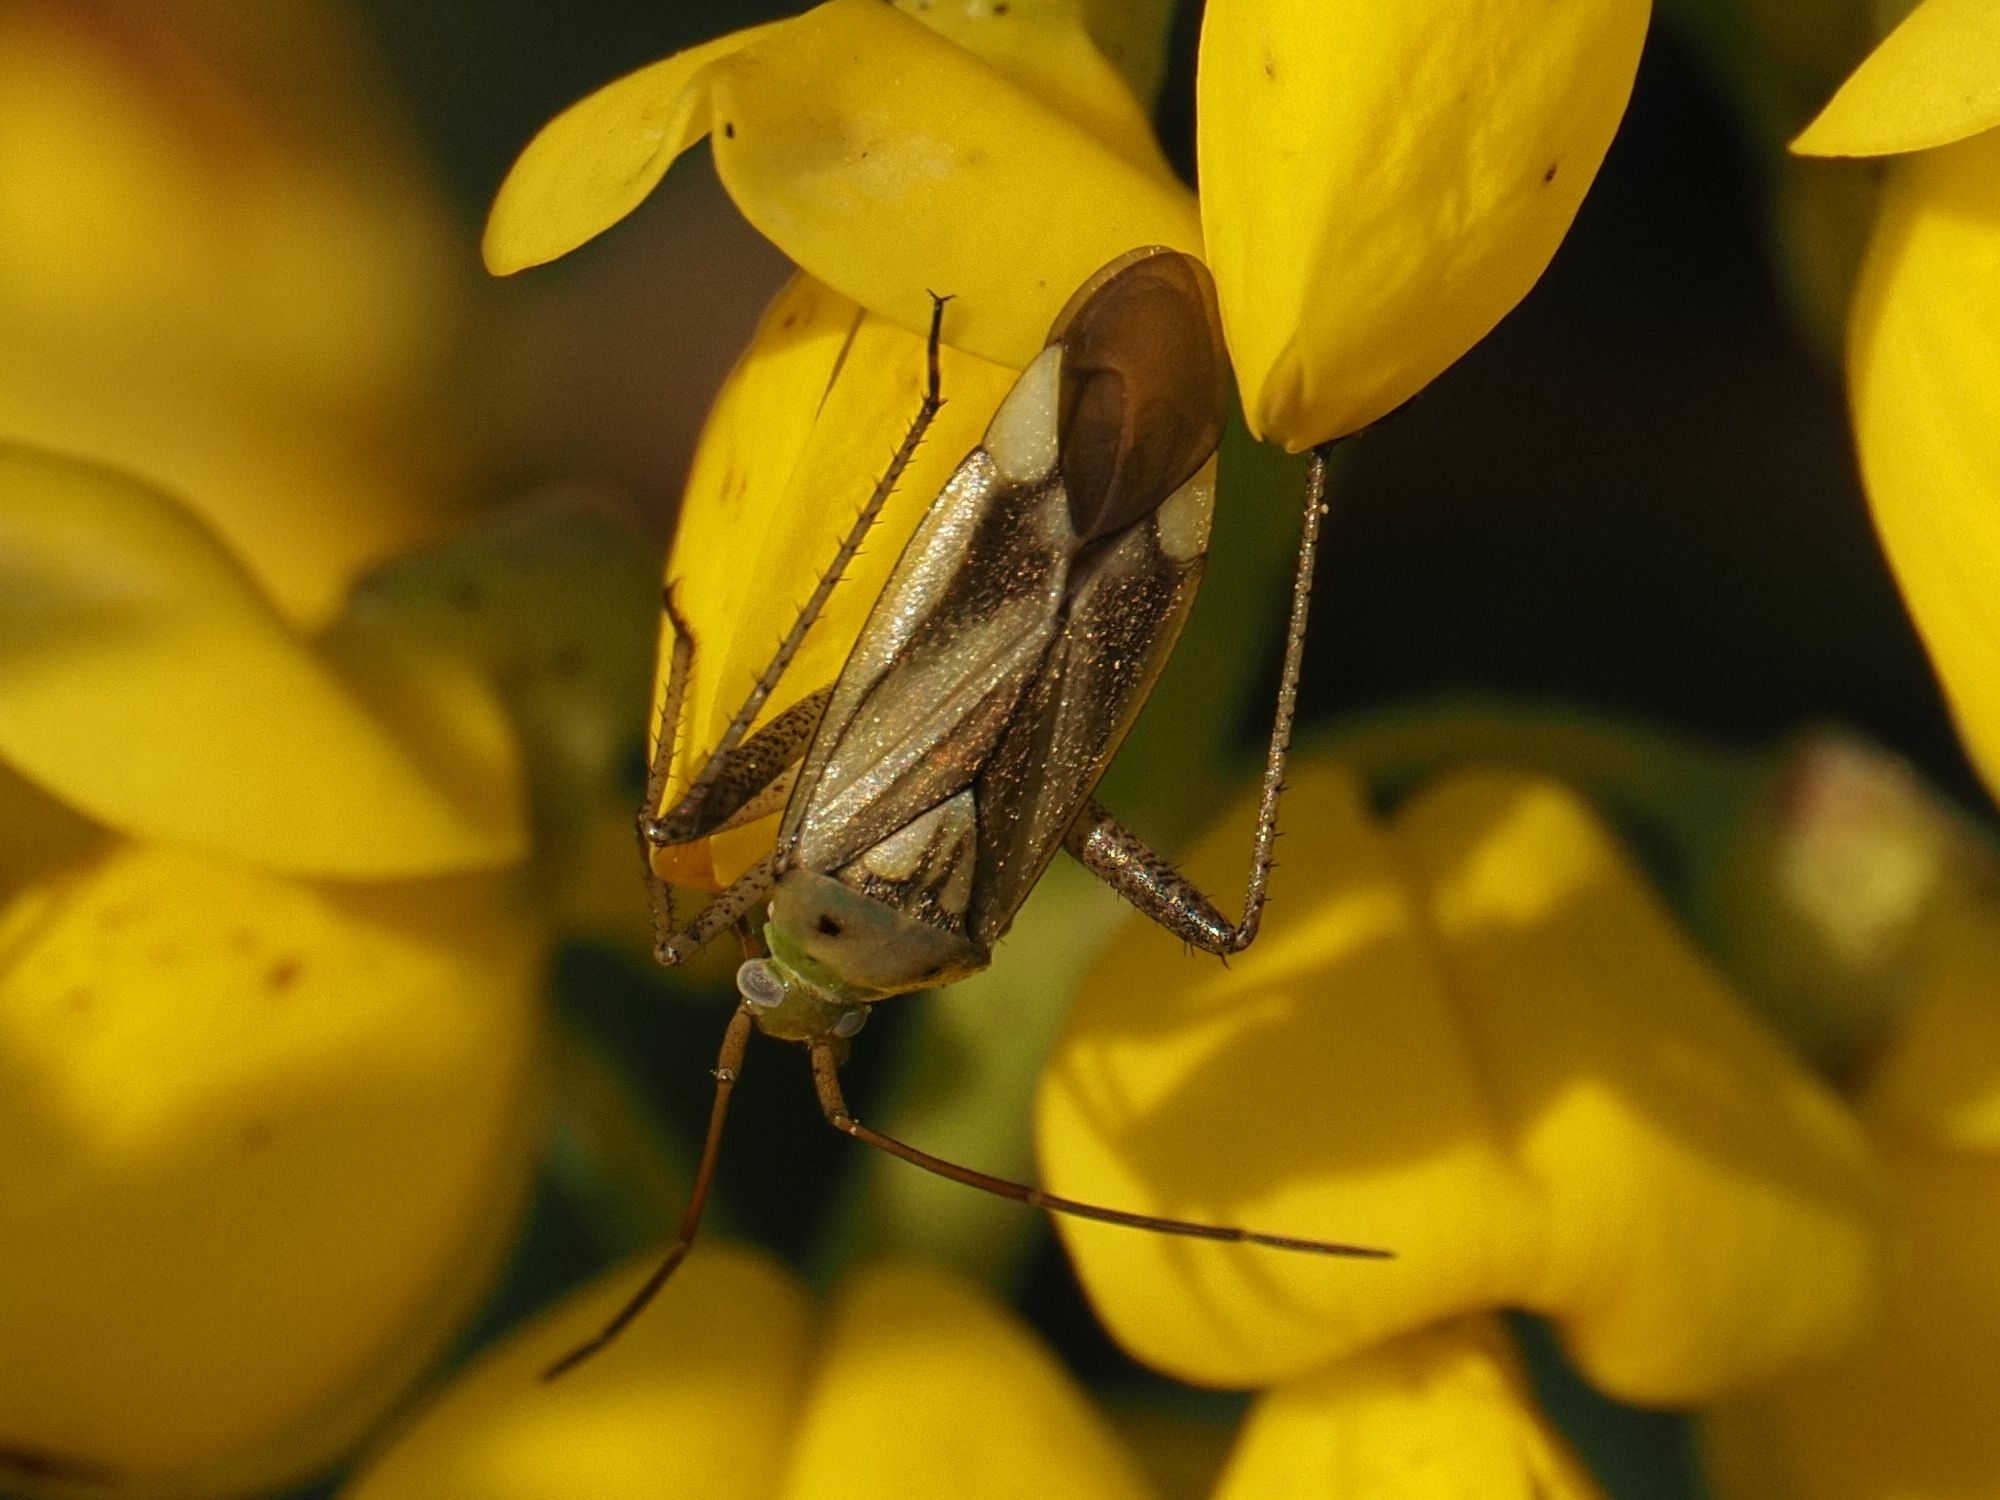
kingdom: Animalia
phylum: Arthropoda
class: Insecta
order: Hemiptera
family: Miridae
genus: Adelphocoris
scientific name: Adelphocoris lineolatus
